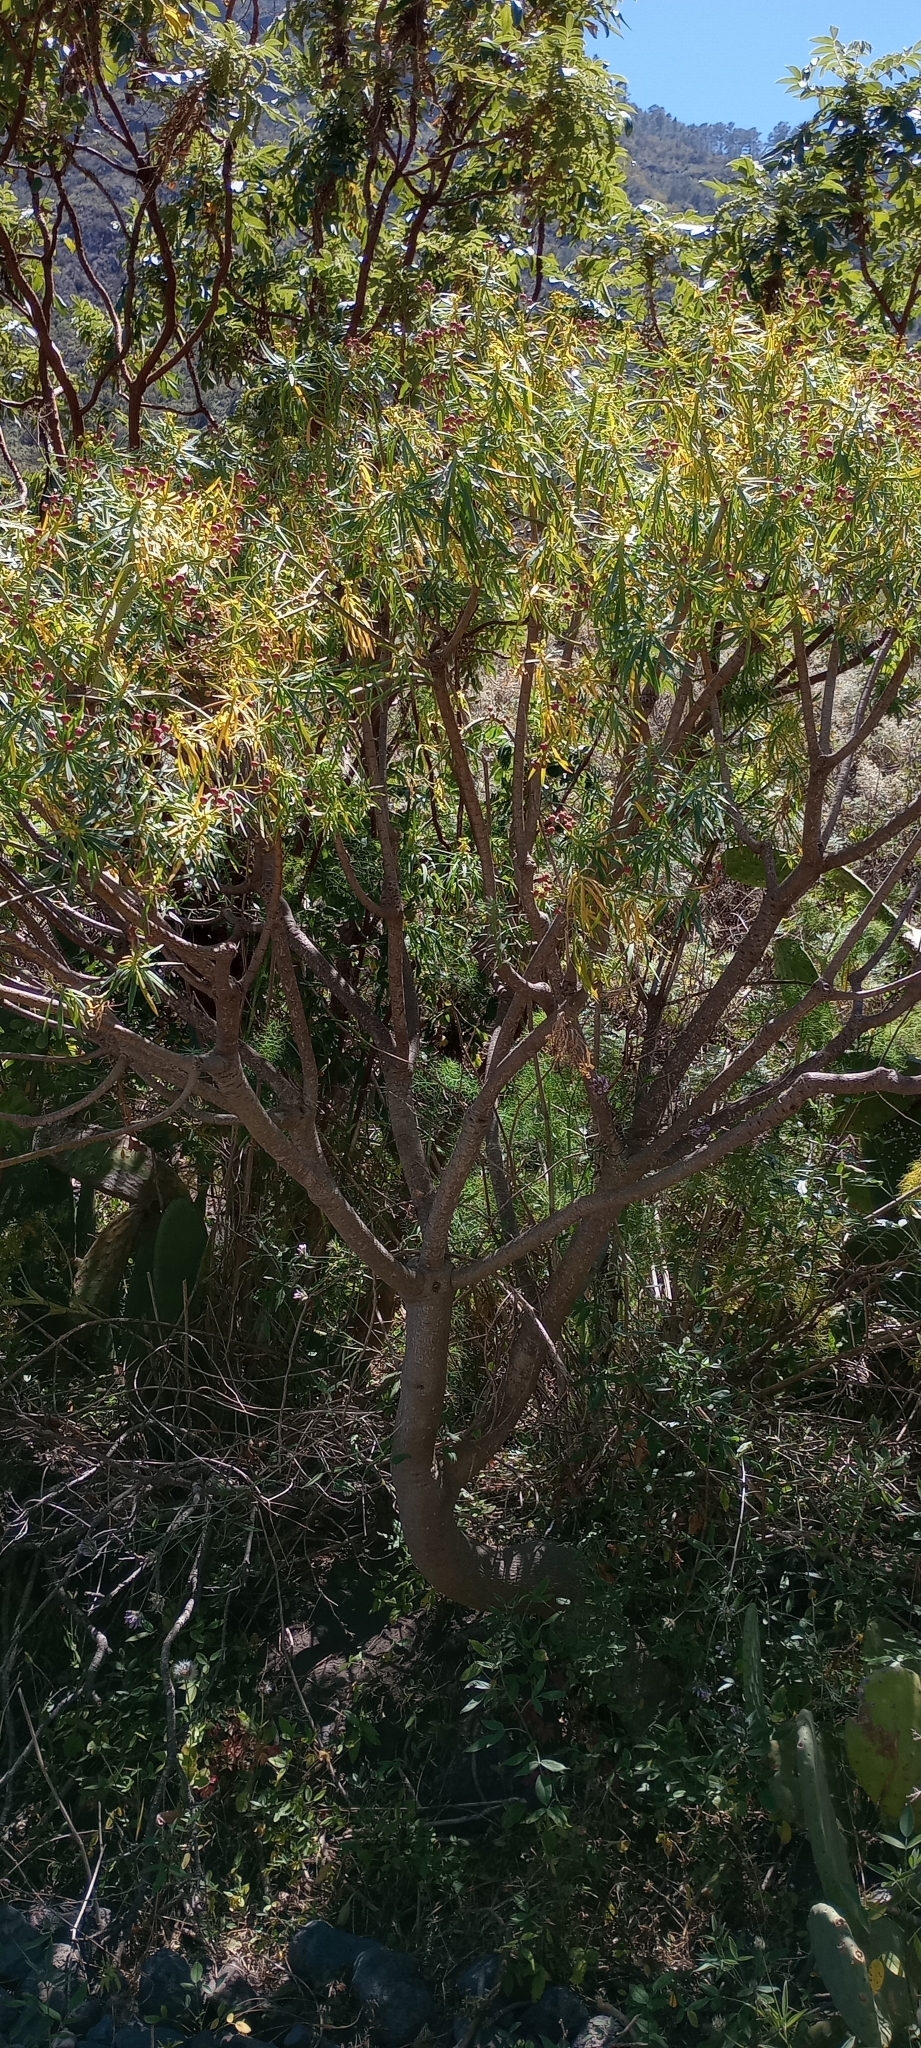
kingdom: Plantae
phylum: Tracheophyta
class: Magnoliopsida
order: Malpighiales
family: Euphorbiaceae
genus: Euphorbia
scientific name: Euphorbia lamarckii
